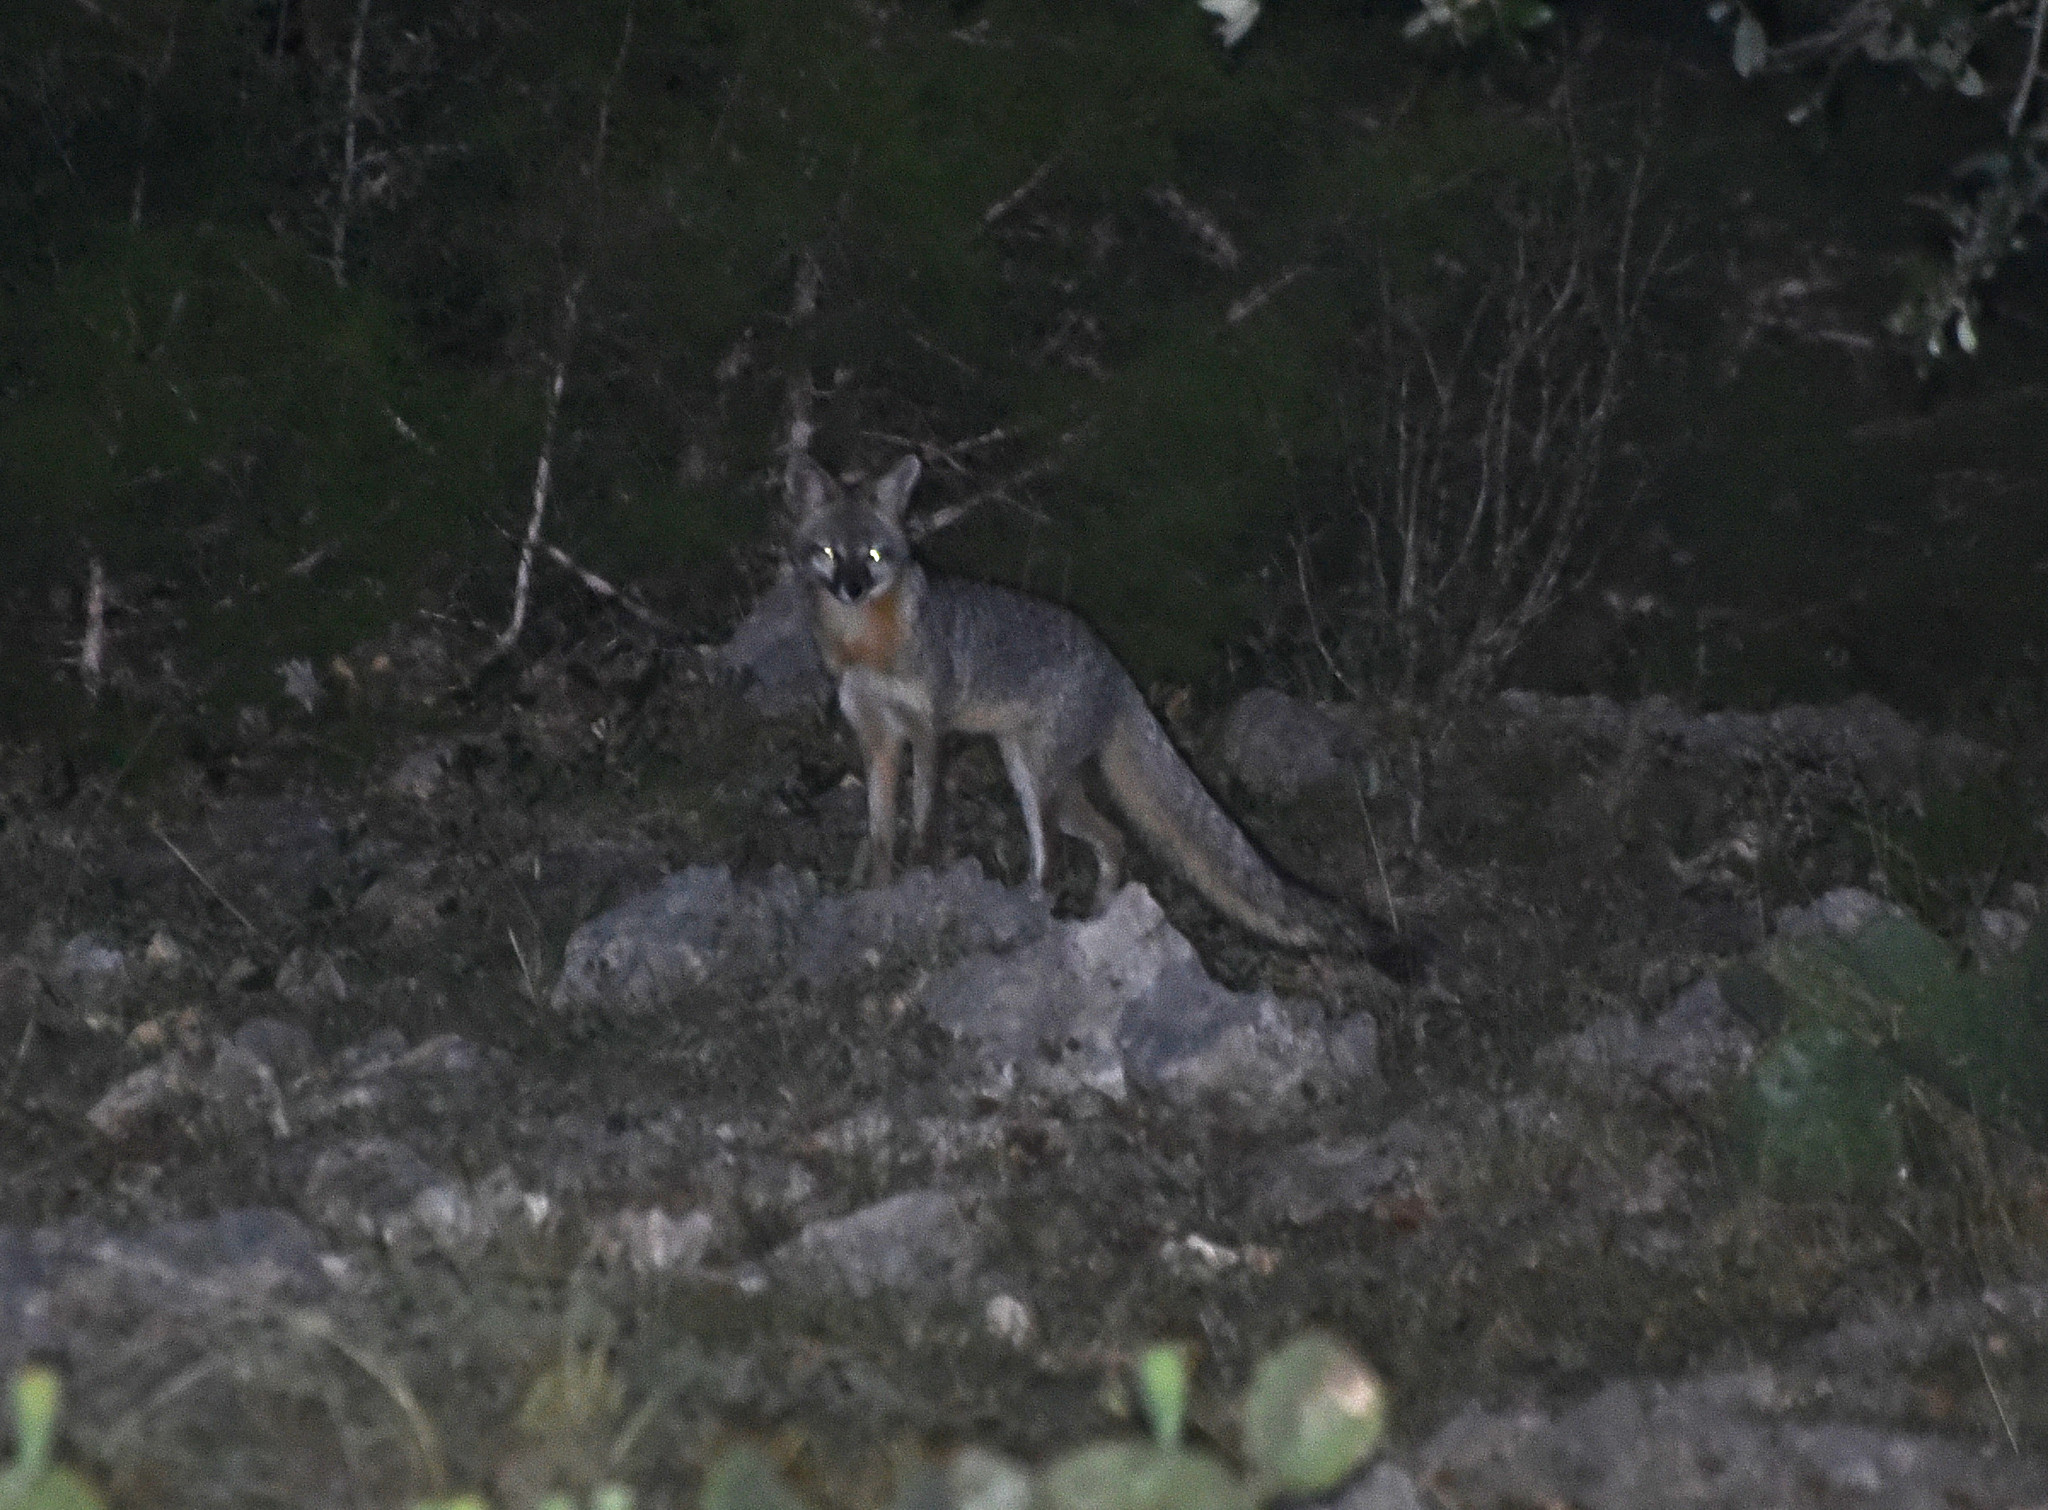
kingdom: Animalia
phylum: Chordata
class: Mammalia
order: Carnivora
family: Canidae
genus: Urocyon
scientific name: Urocyon cinereoargenteus
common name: Gray fox
